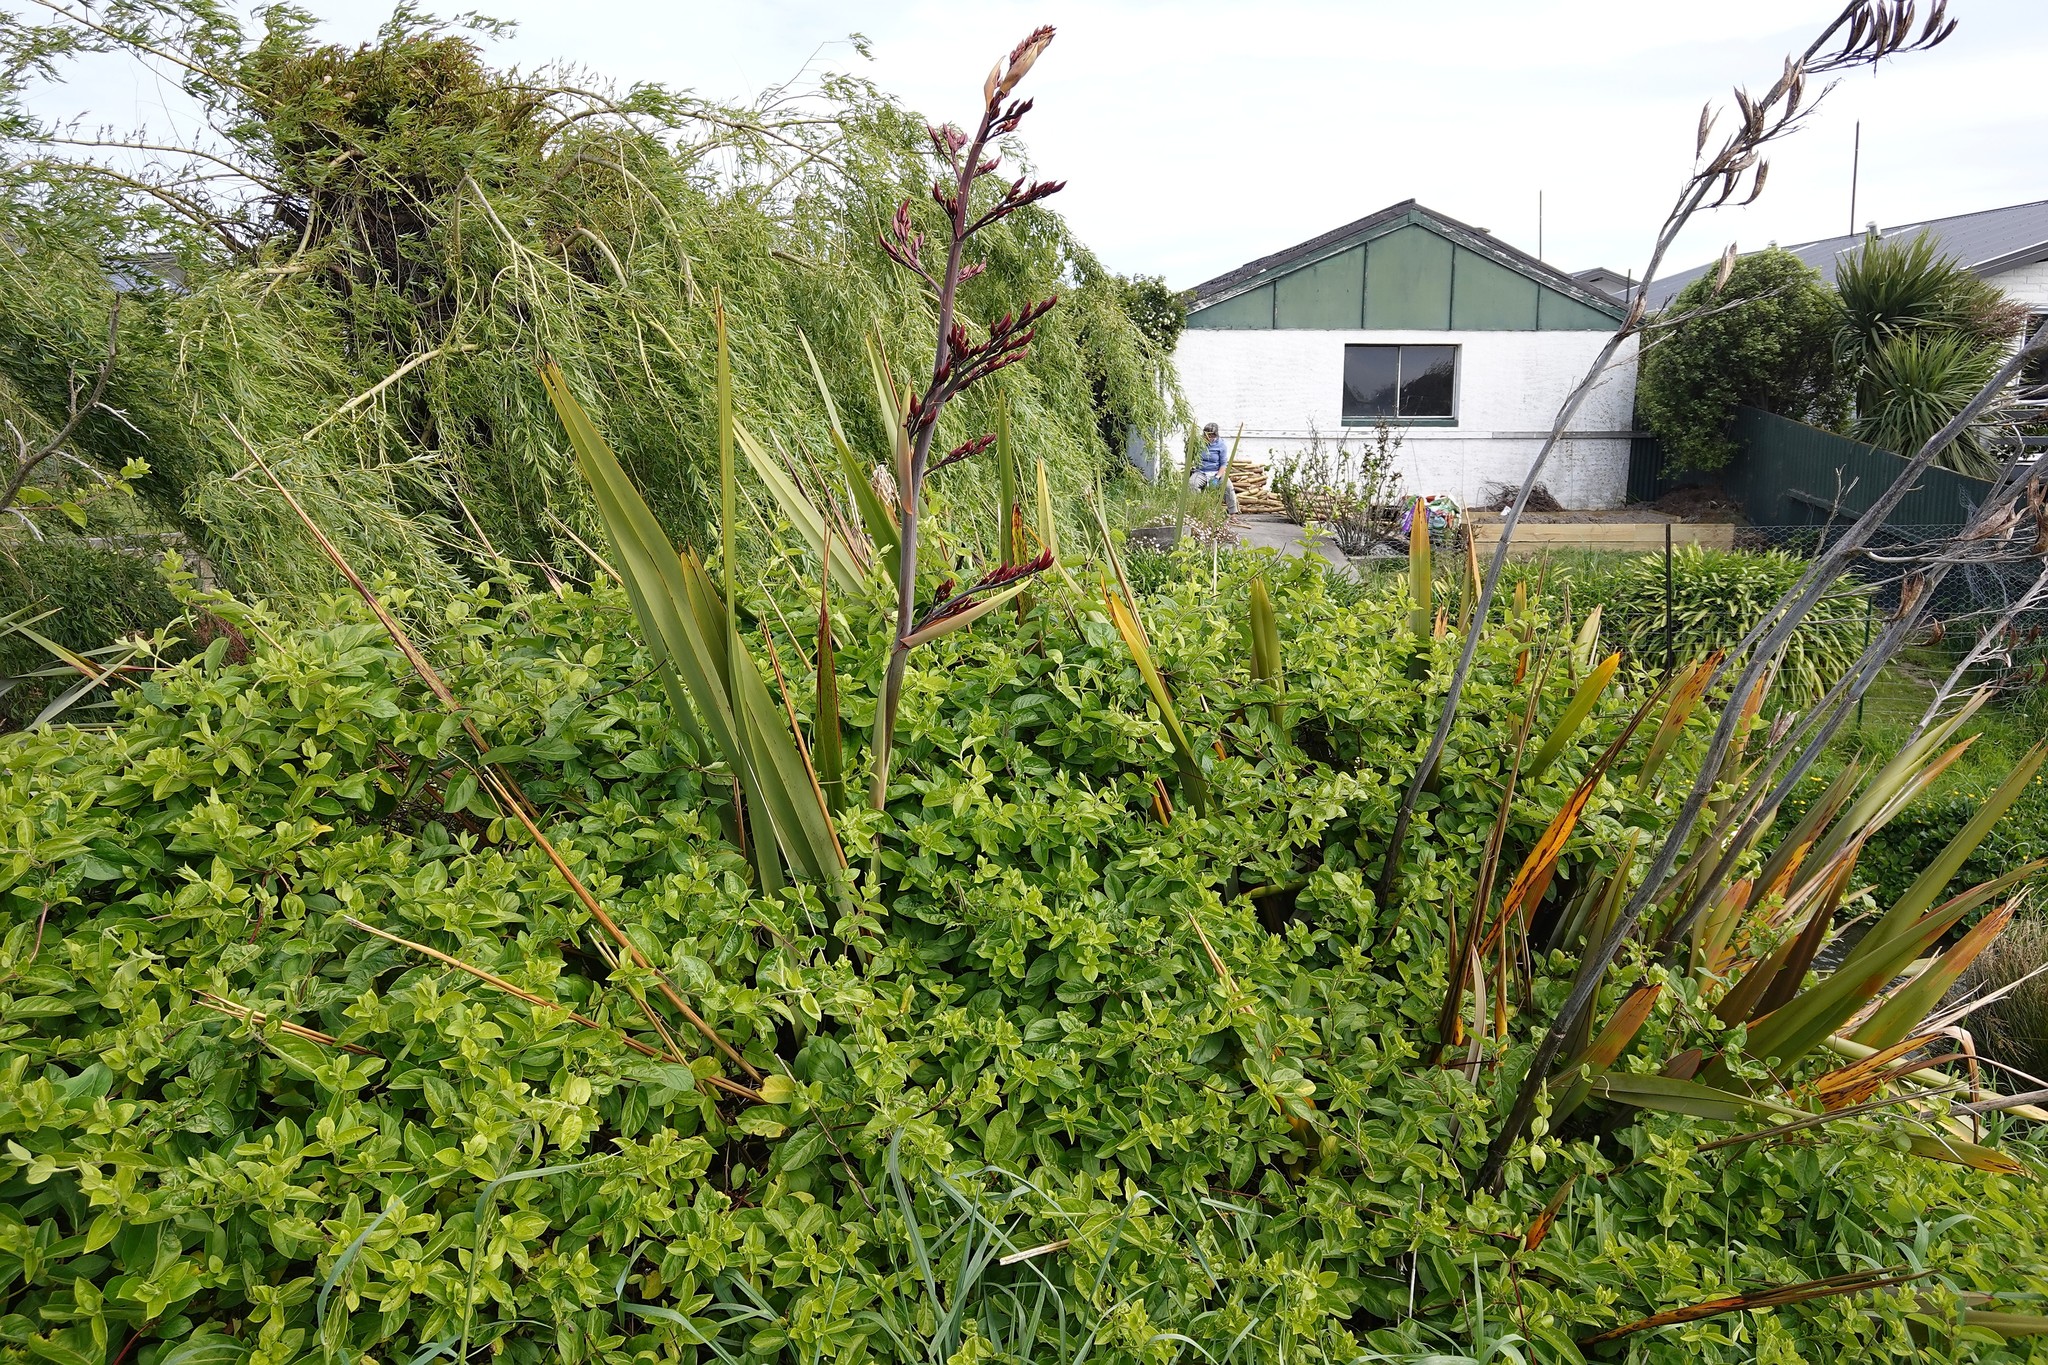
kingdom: Plantae
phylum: Tracheophyta
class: Magnoliopsida
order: Dipsacales
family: Caprifoliaceae
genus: Lonicera
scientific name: Lonicera japonica
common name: Japanese honeysuckle
